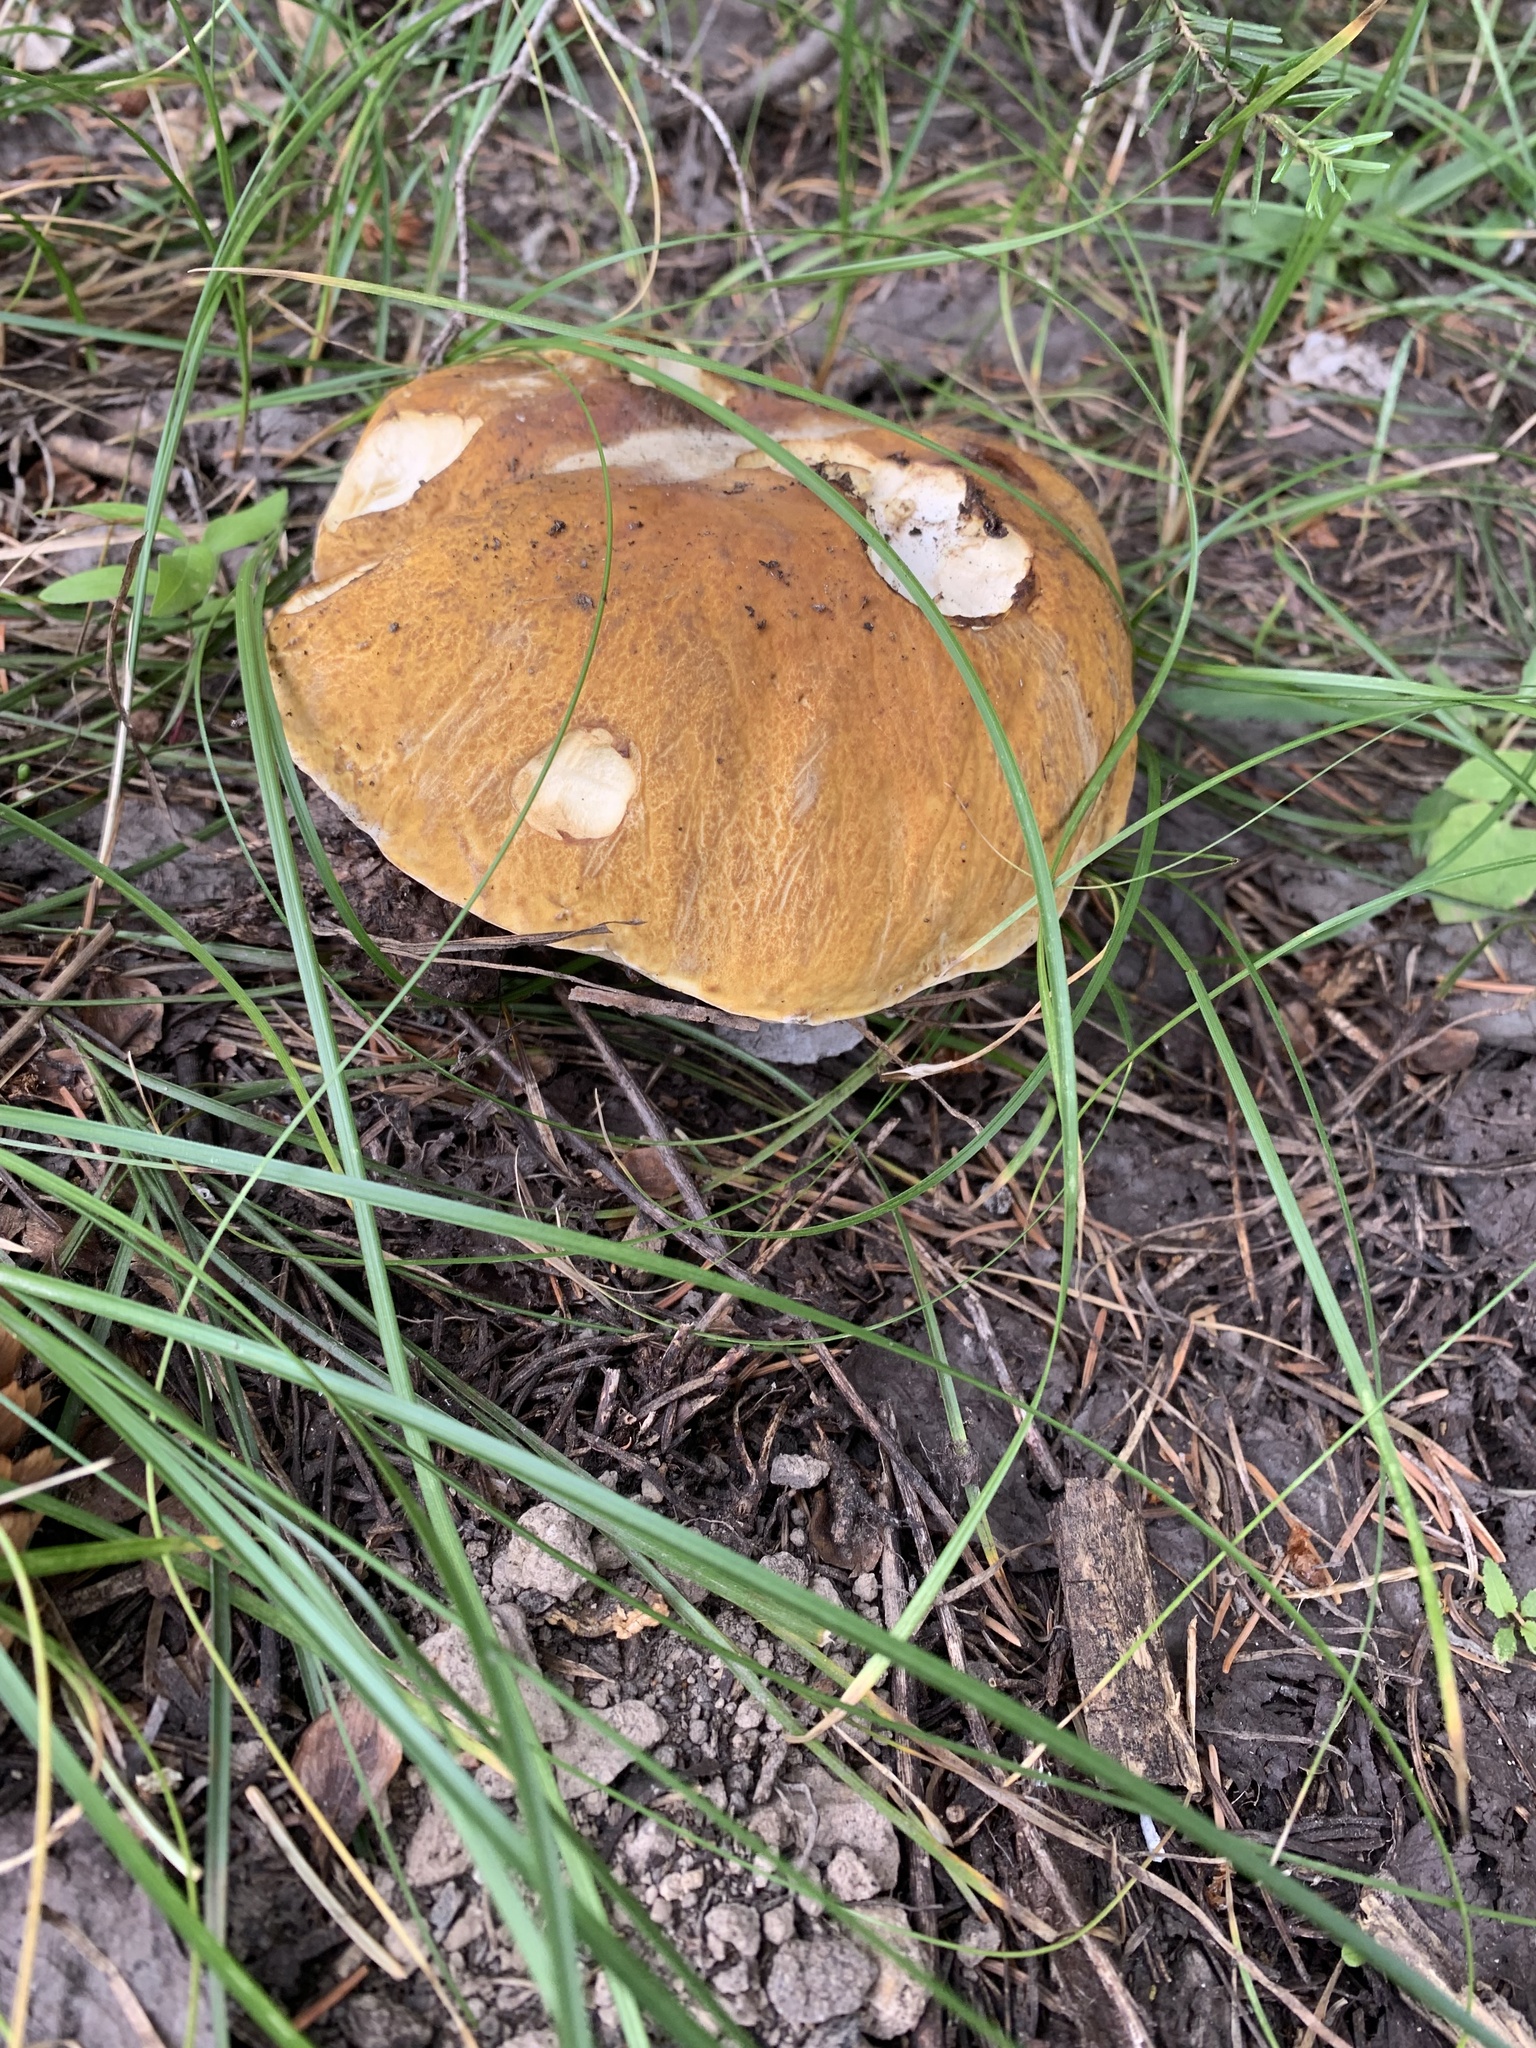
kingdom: Fungi
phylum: Basidiomycota
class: Agaricomycetes
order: Boletales
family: Boletaceae
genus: Boletus
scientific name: Boletus edulis
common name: Cep
